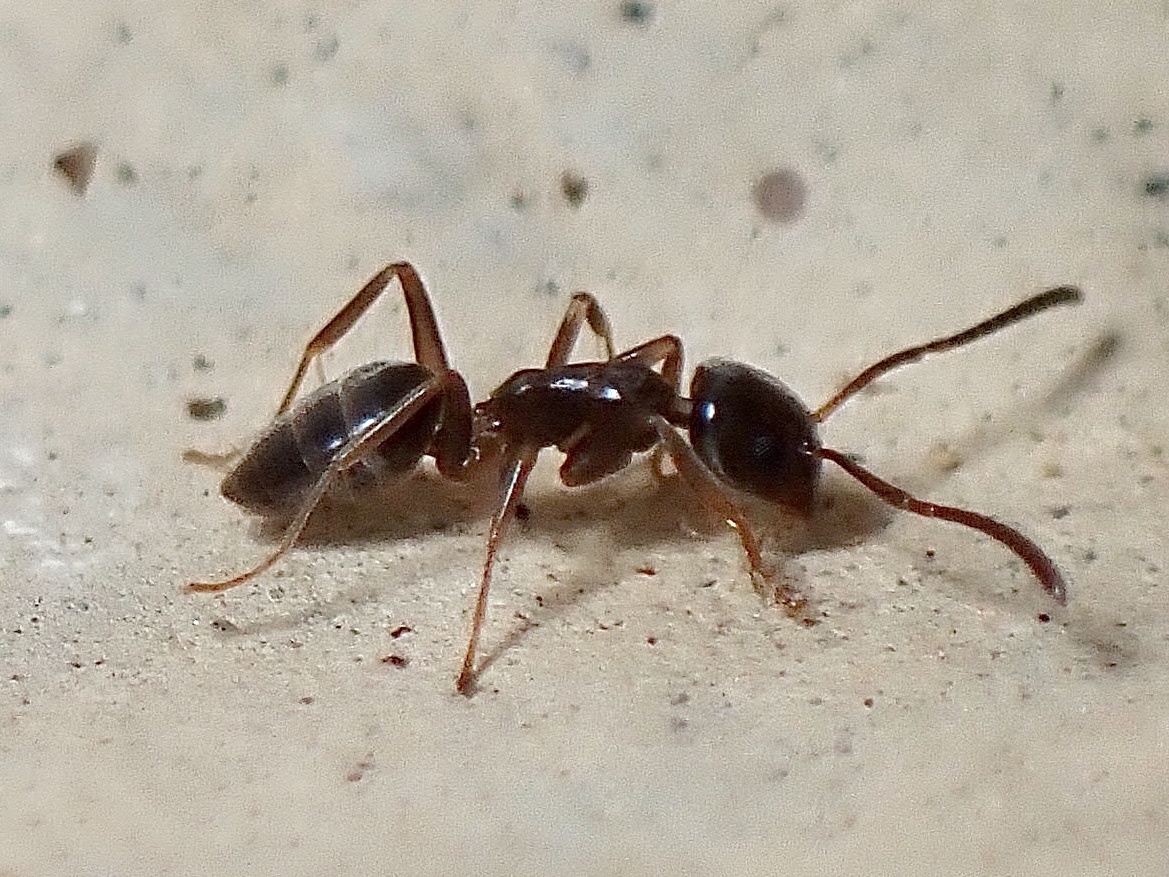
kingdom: Animalia
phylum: Arthropoda
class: Insecta
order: Hymenoptera
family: Formicidae
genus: Tapinoma
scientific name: Tapinoma sessile
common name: Odorous house ant
